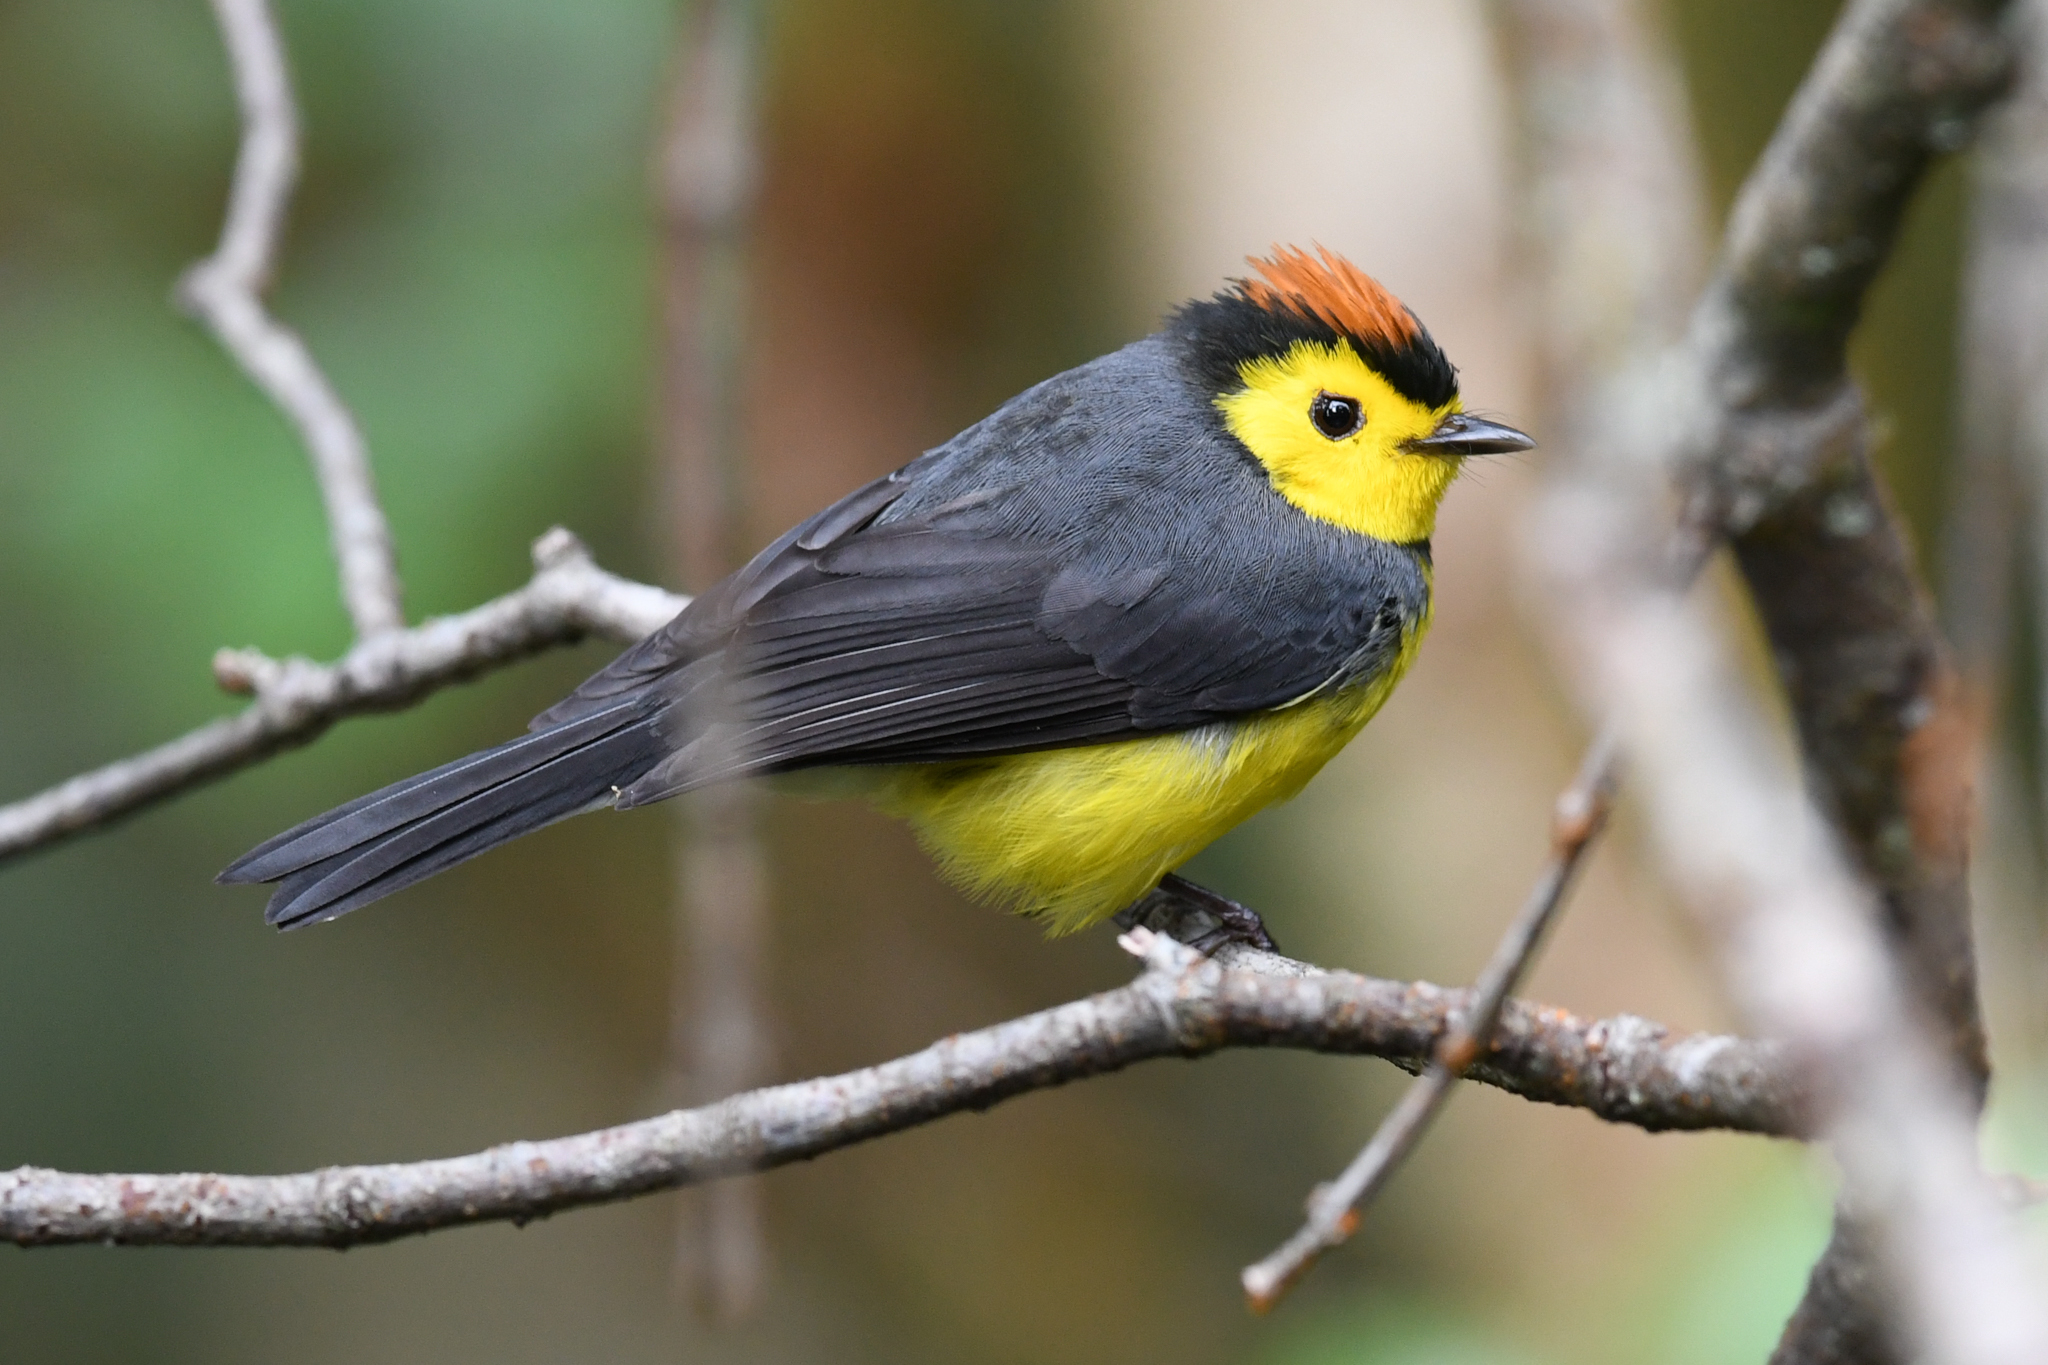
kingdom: Animalia
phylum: Chordata
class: Aves
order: Passeriformes
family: Parulidae
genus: Myioborus
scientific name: Myioborus torquatus
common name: Collared whitestart
